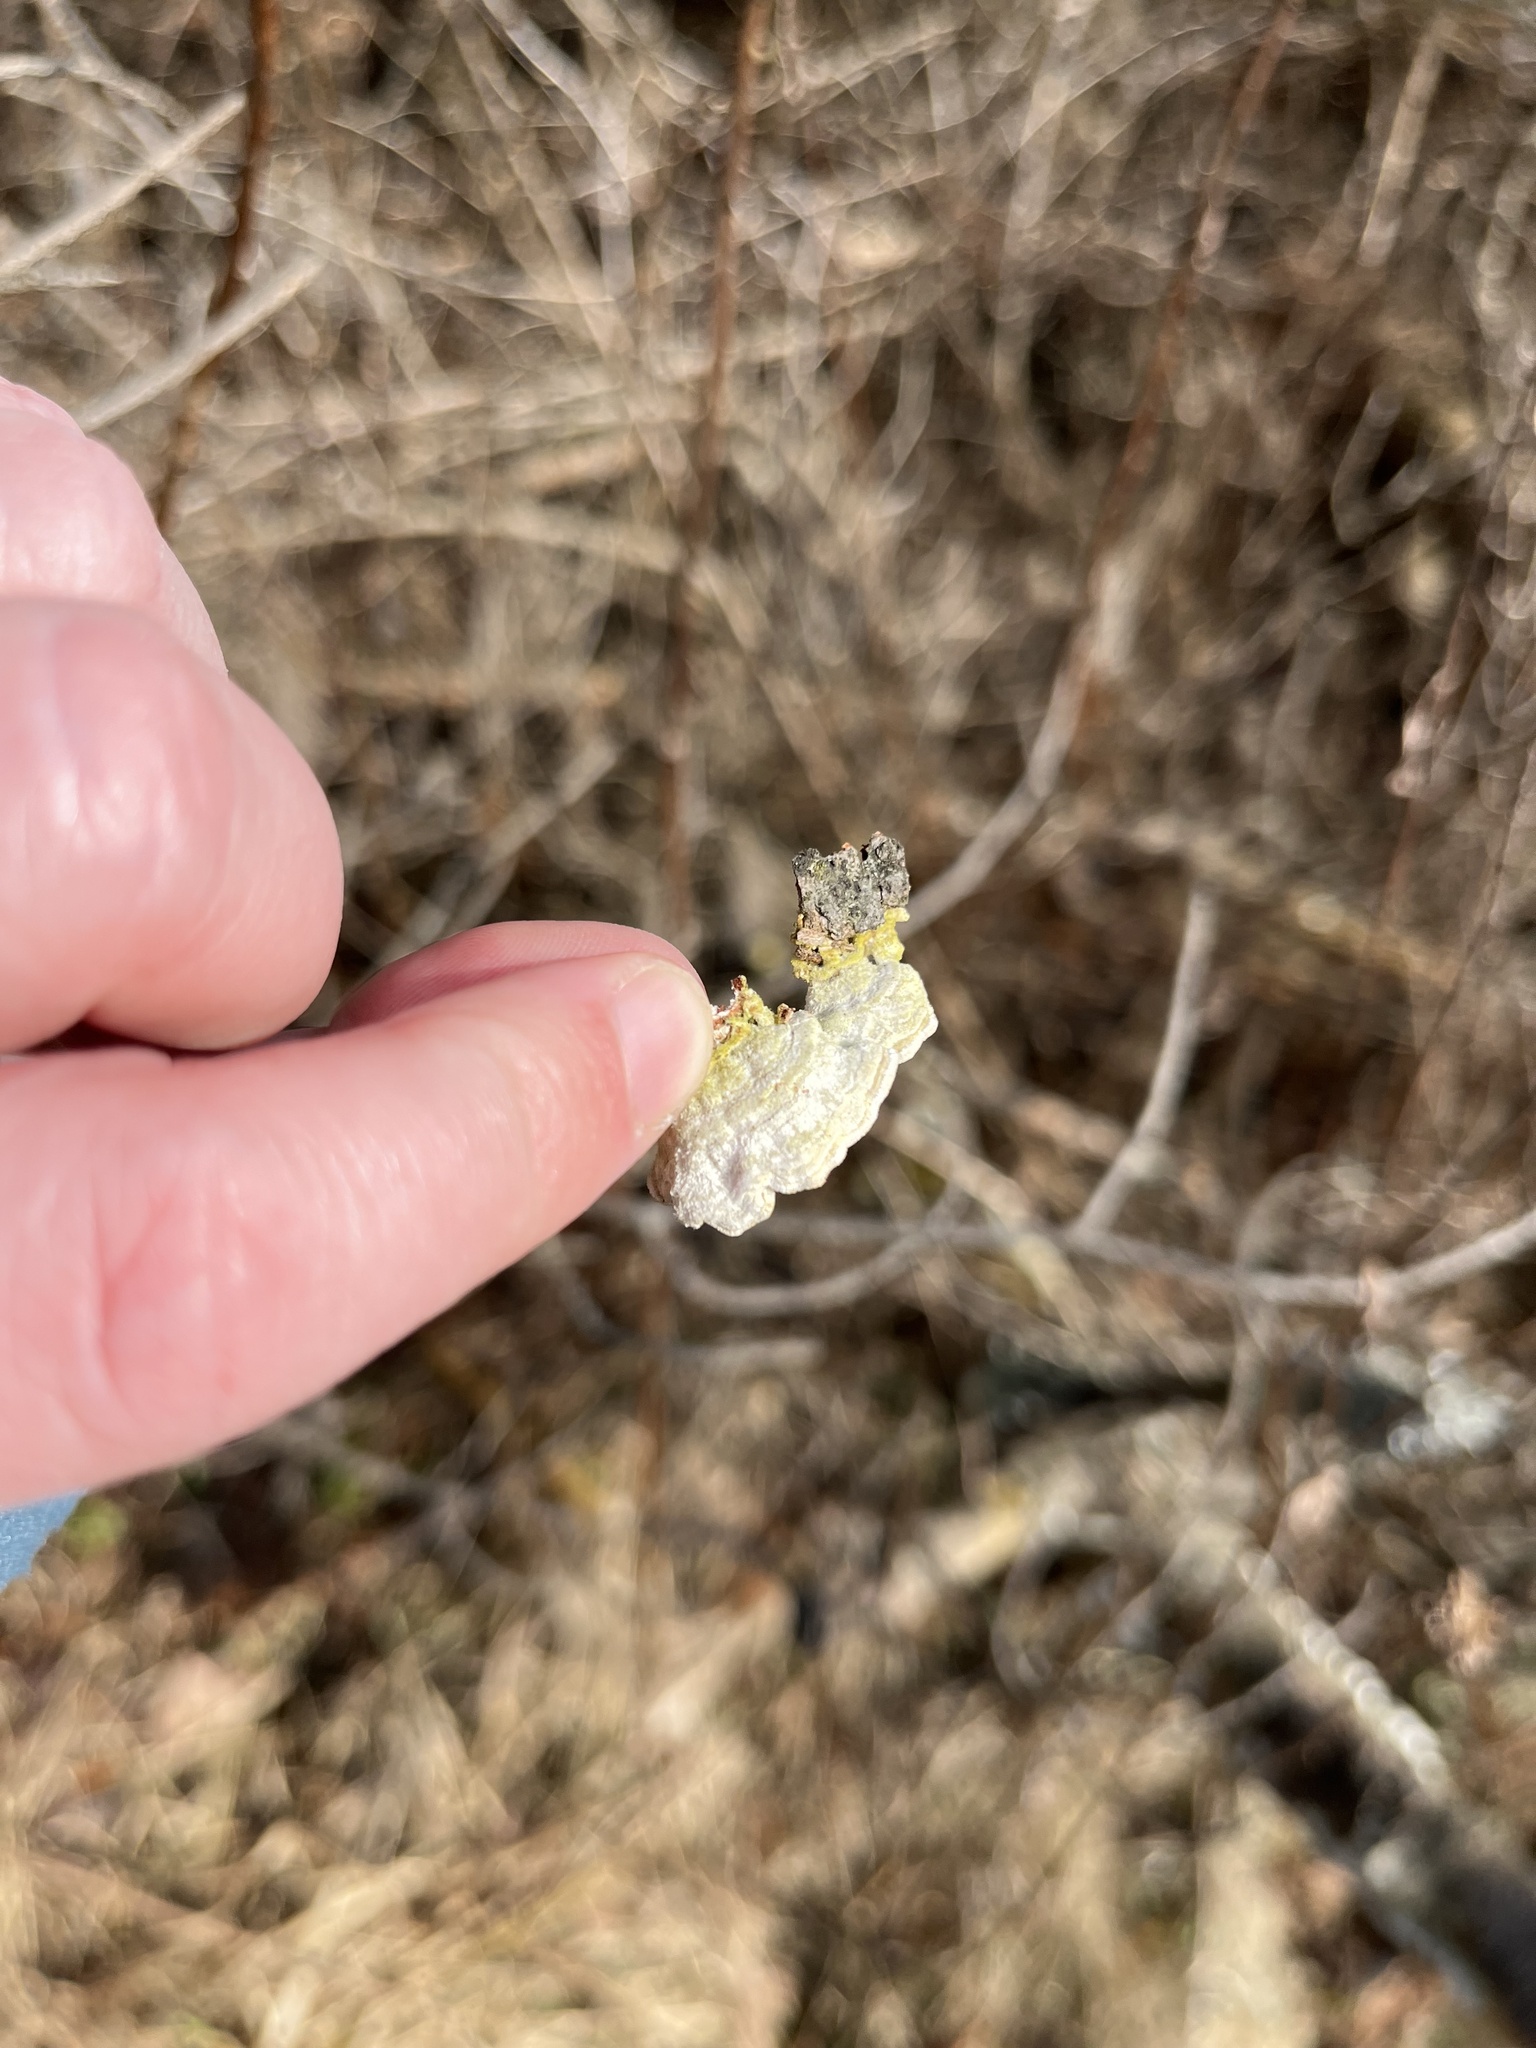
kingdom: Fungi
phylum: Basidiomycota
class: Agaricomycetes
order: Hymenochaetales
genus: Trichaptum
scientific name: Trichaptum abietinum
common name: Purplepore bracket
